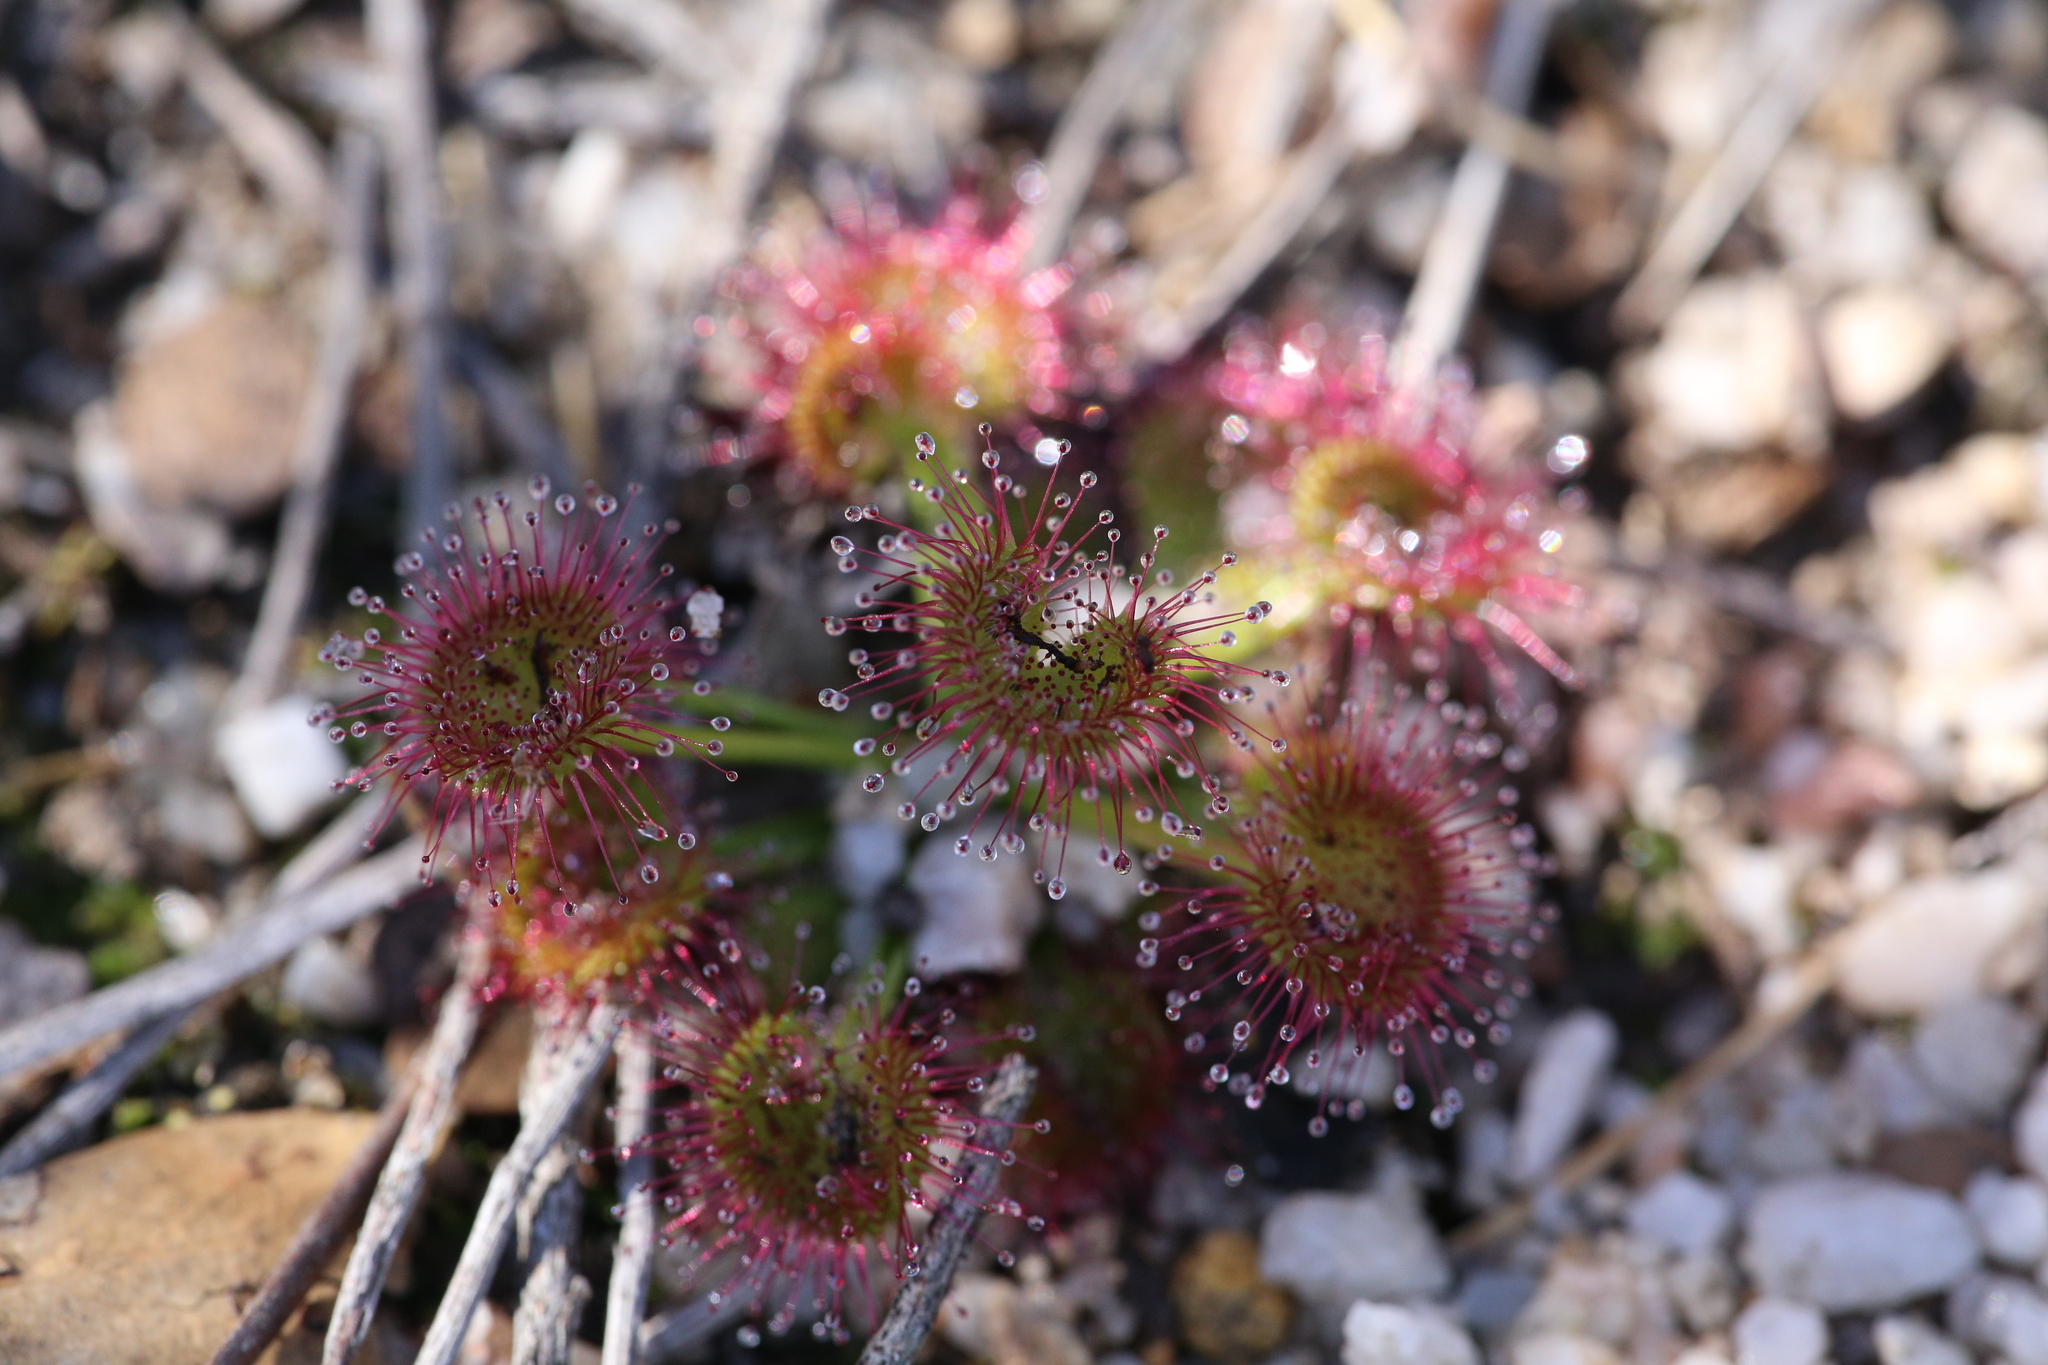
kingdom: Plantae
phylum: Tracheophyta
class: Magnoliopsida
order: Caryophyllales
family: Droseraceae
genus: Drosera
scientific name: Drosera stolonifera
